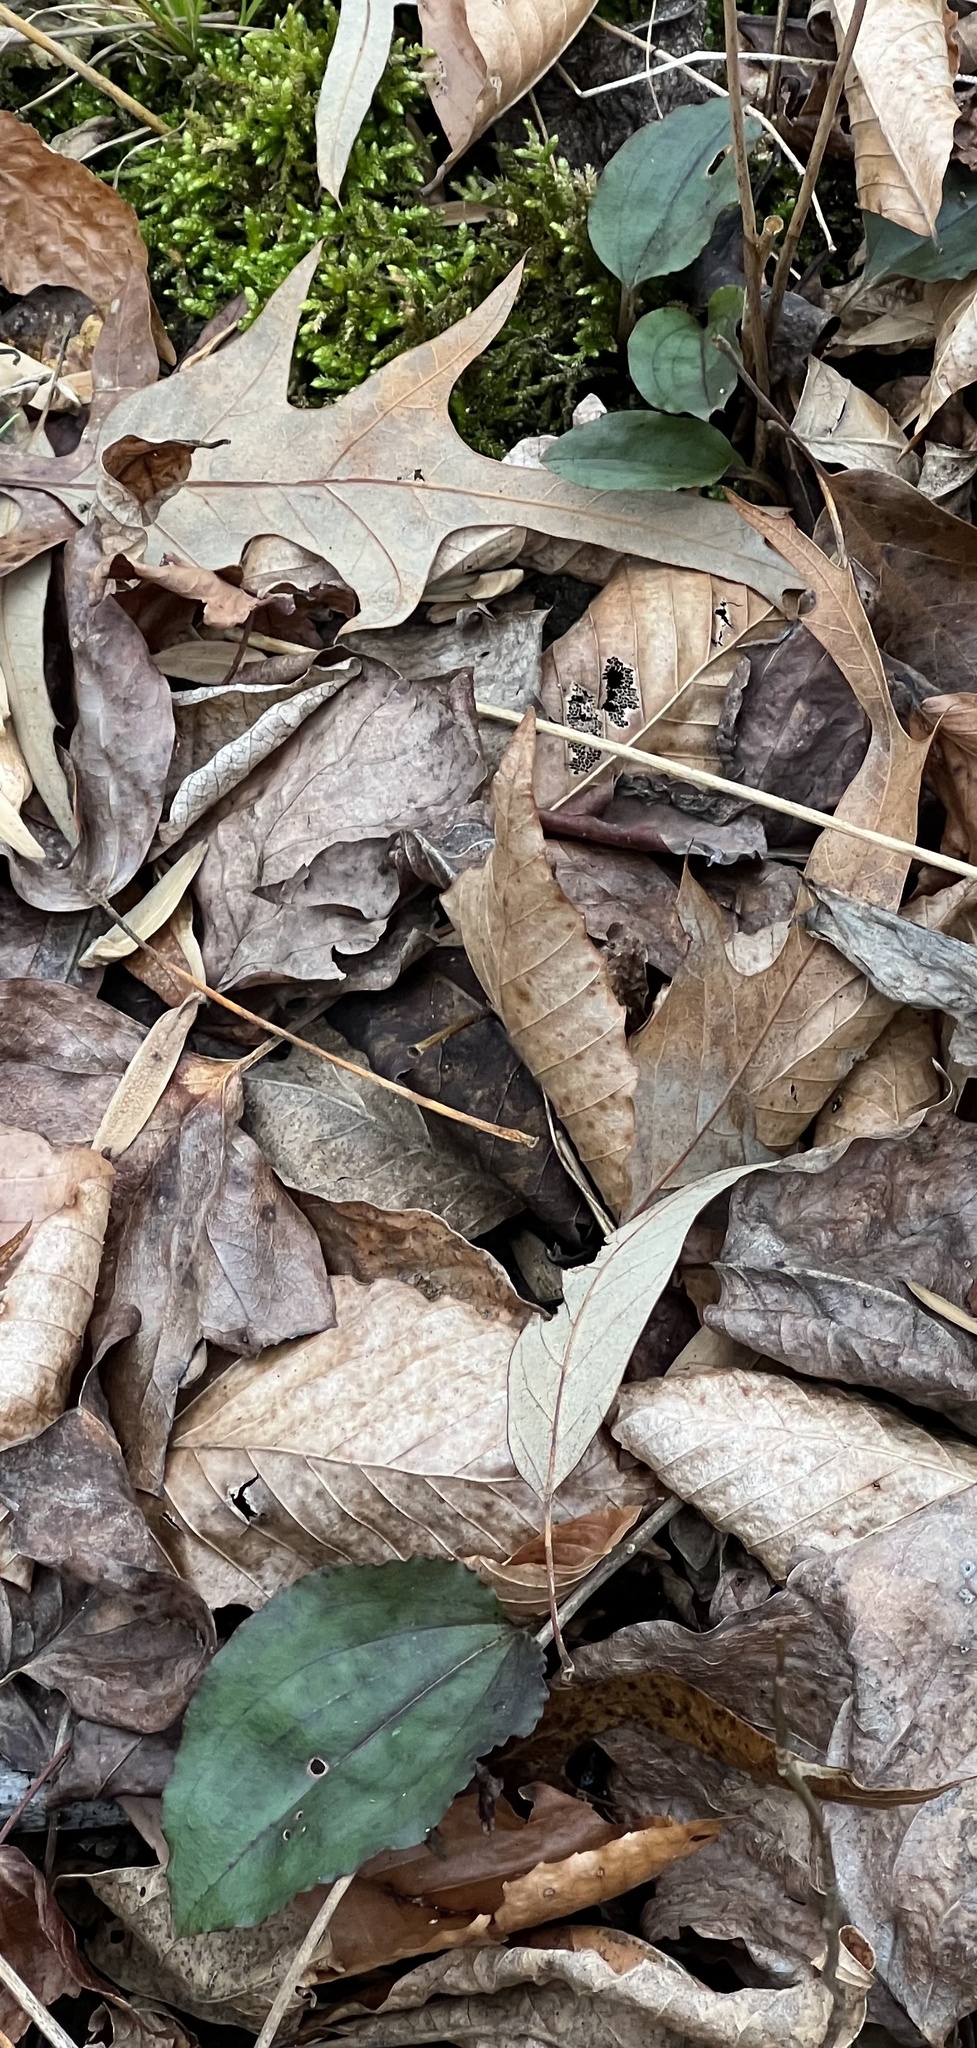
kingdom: Plantae
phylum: Tracheophyta
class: Liliopsida
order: Asparagales
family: Orchidaceae
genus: Tipularia
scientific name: Tipularia discolor
